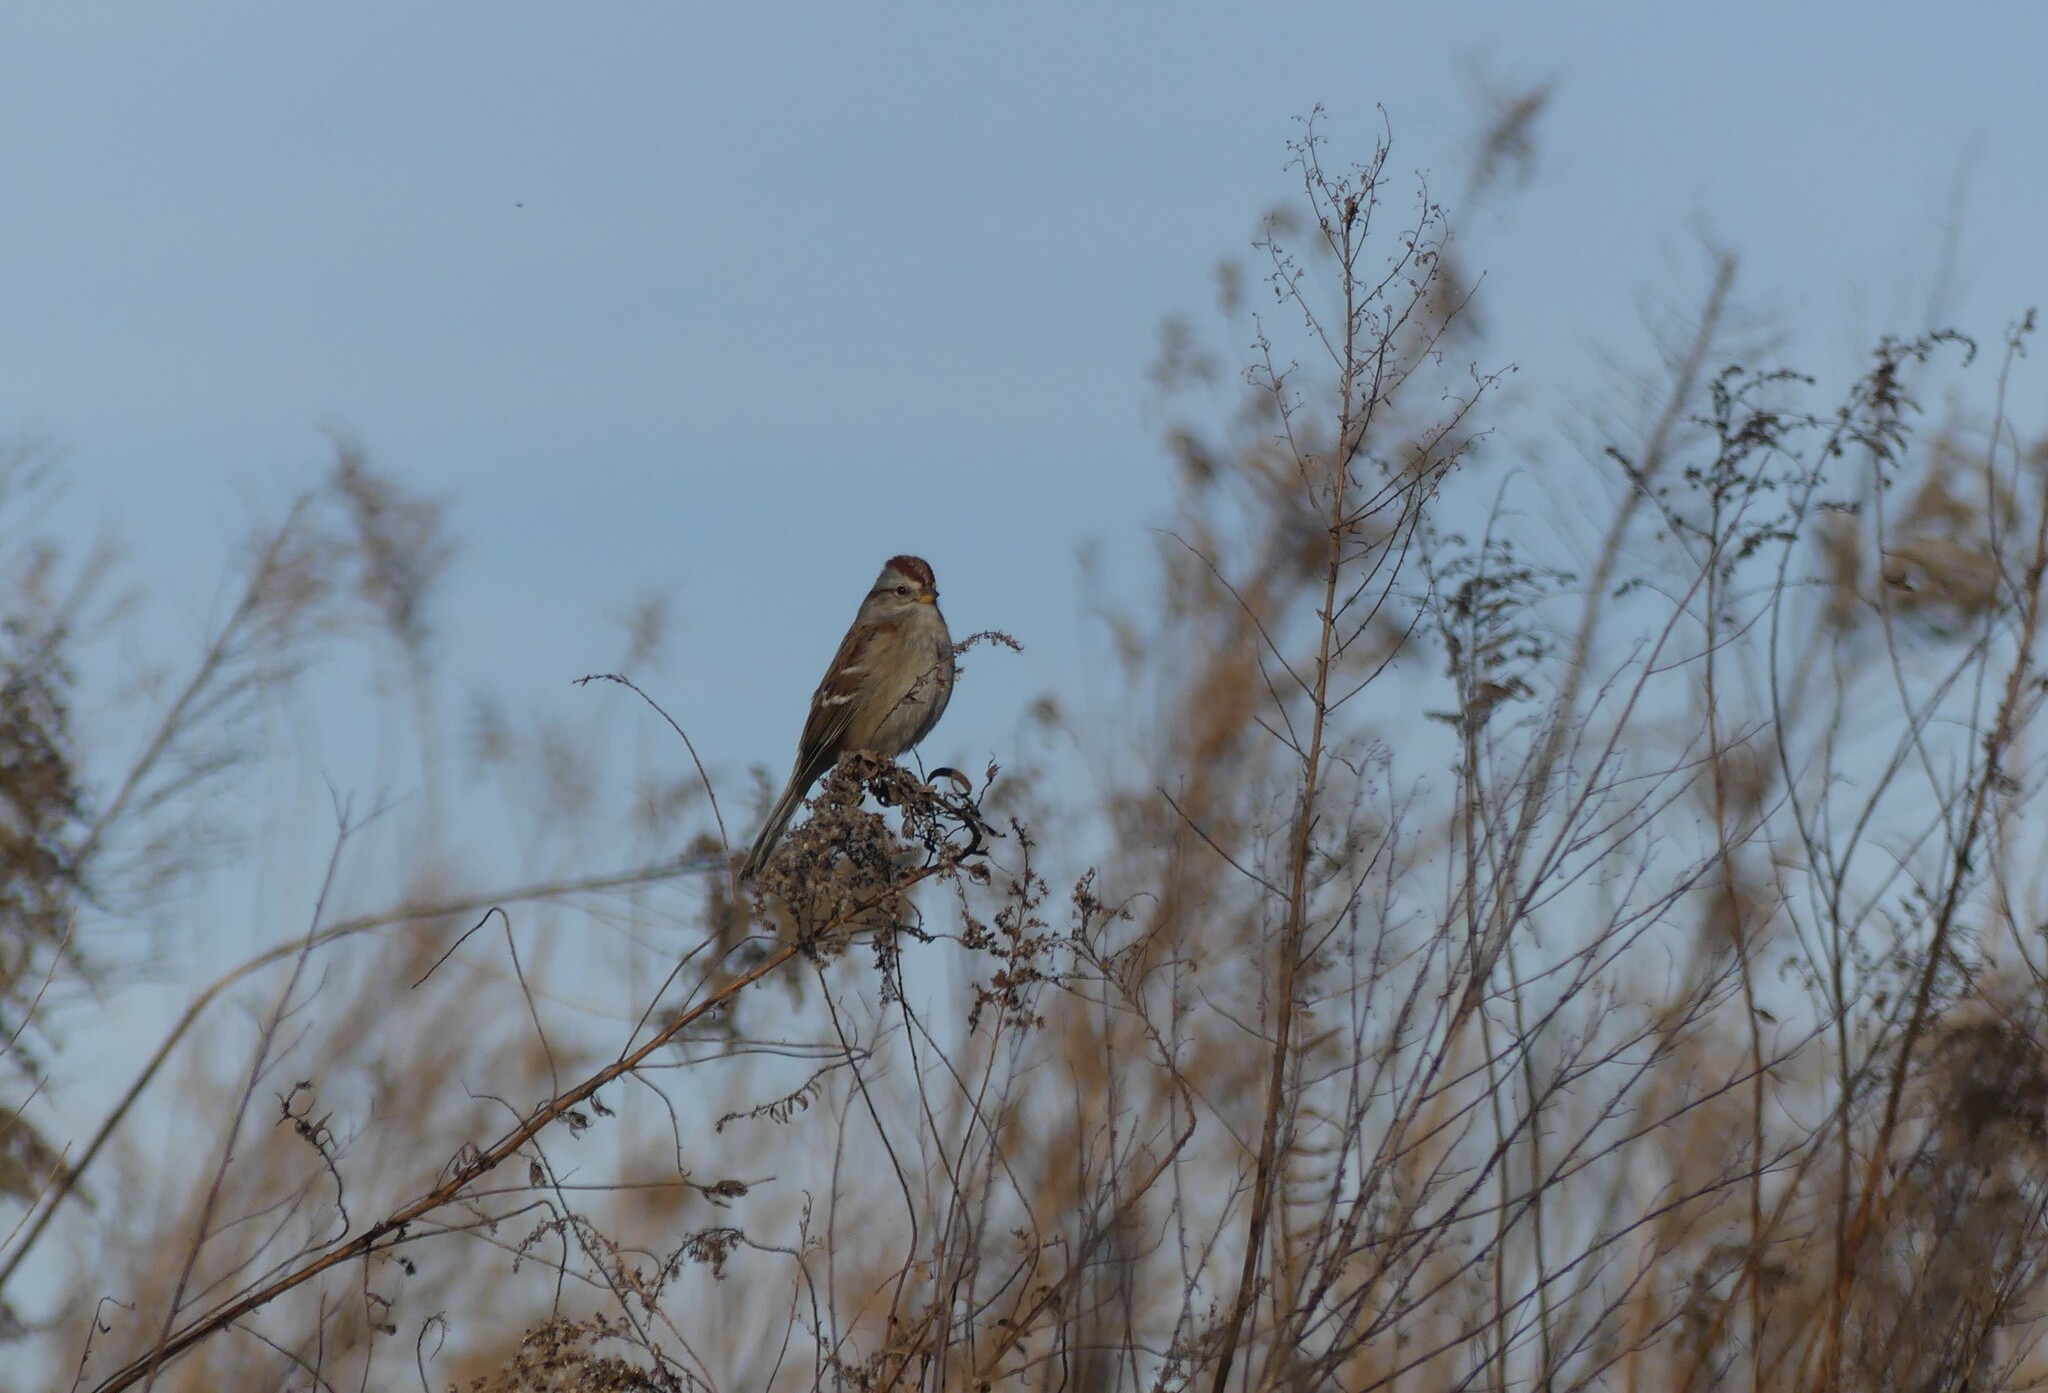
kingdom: Animalia
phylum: Chordata
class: Aves
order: Passeriformes
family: Passerellidae
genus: Spizelloides
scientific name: Spizelloides arborea
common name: American tree sparrow
